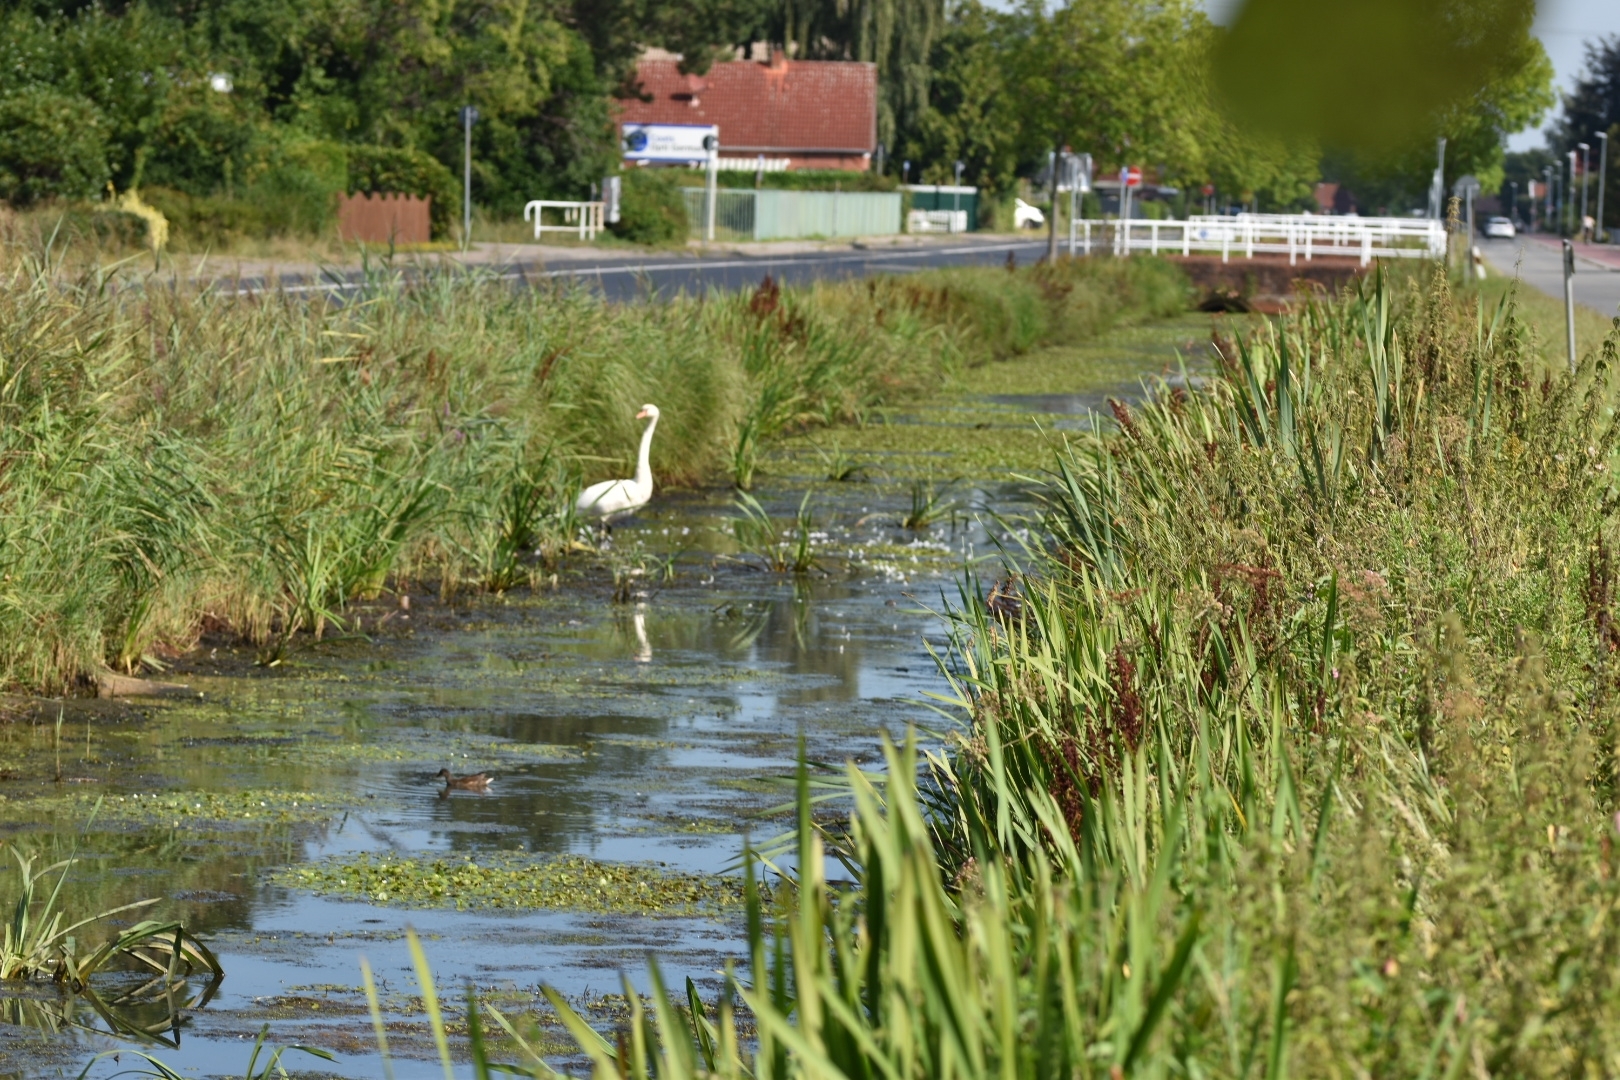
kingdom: Animalia
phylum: Chordata
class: Aves
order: Anseriformes
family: Anatidae
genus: Cygnus
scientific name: Cygnus olor
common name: Mute swan
